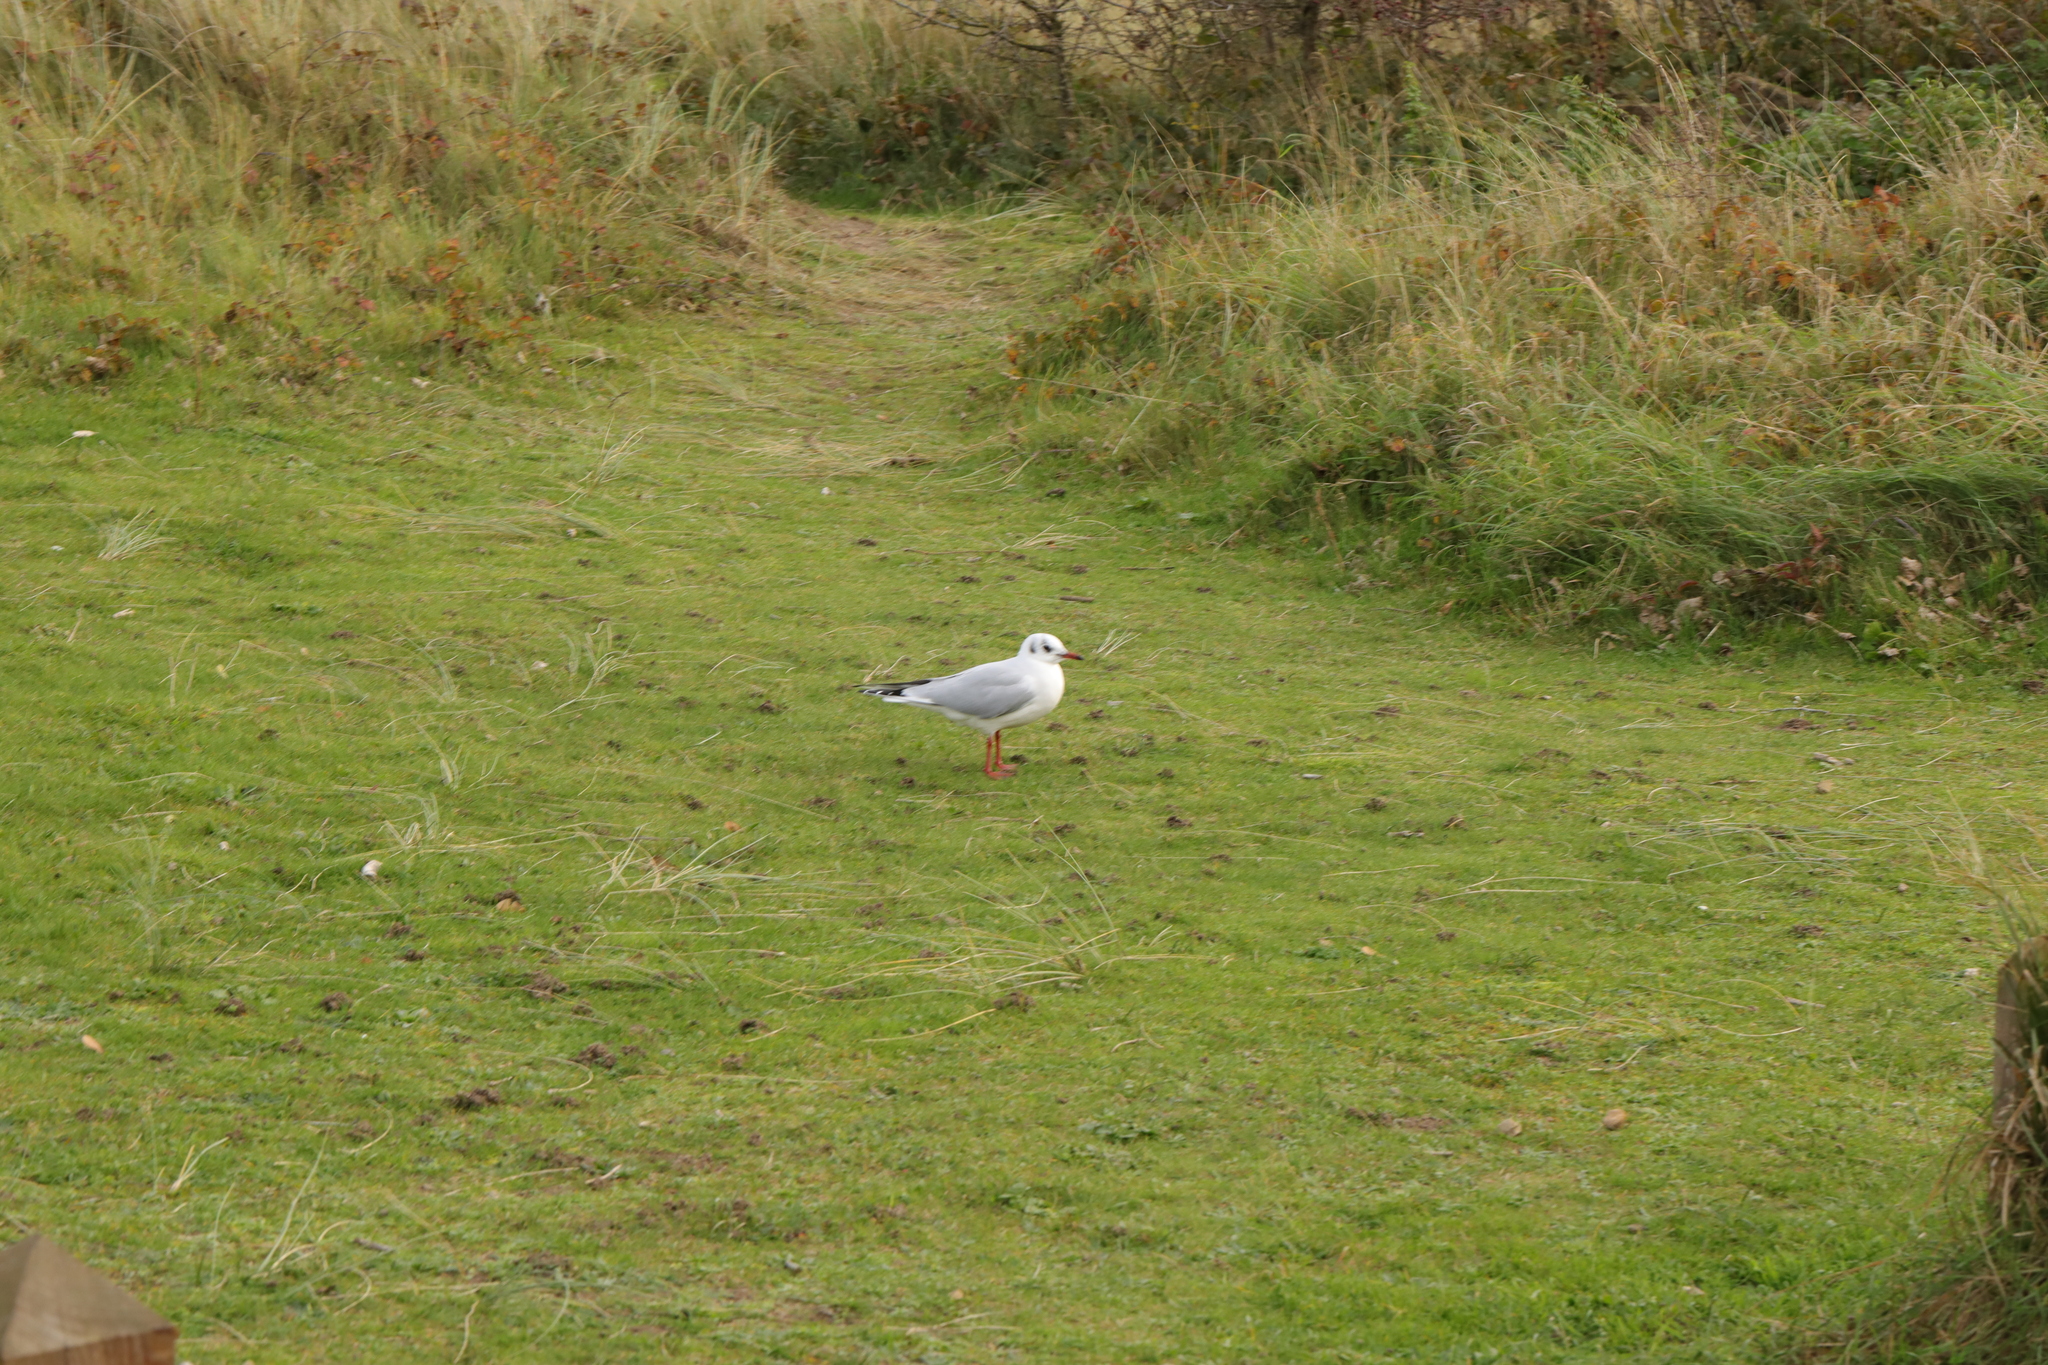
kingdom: Animalia
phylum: Chordata
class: Aves
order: Charadriiformes
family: Laridae
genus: Chroicocephalus
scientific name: Chroicocephalus ridibundus
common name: Black-headed gull
